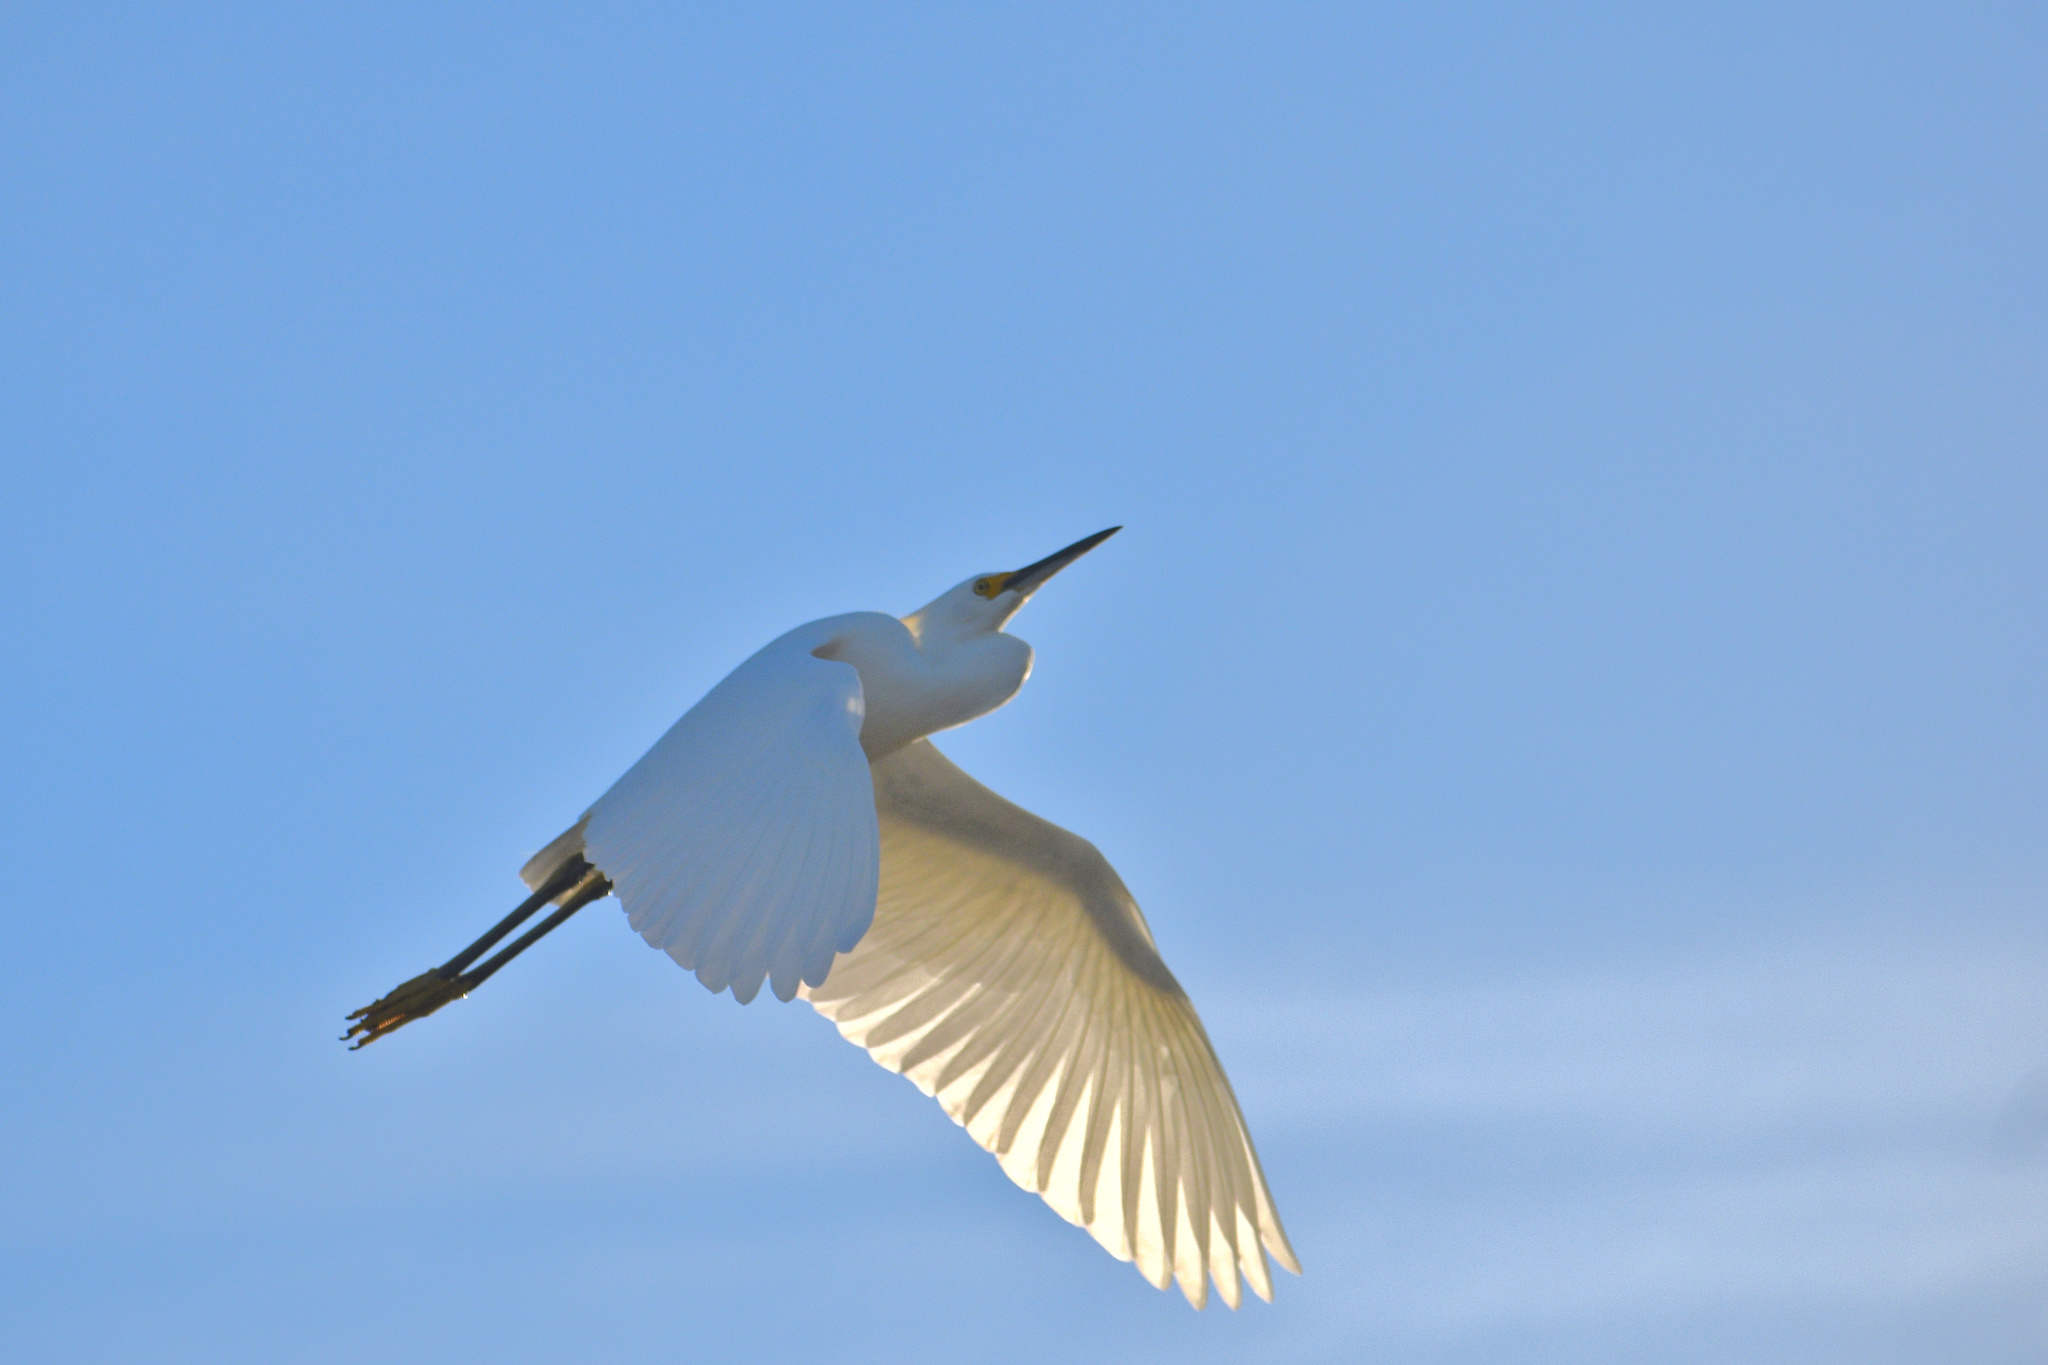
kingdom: Animalia
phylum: Chordata
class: Aves
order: Pelecaniformes
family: Ardeidae
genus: Egretta
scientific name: Egretta thula
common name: Snowy egret
